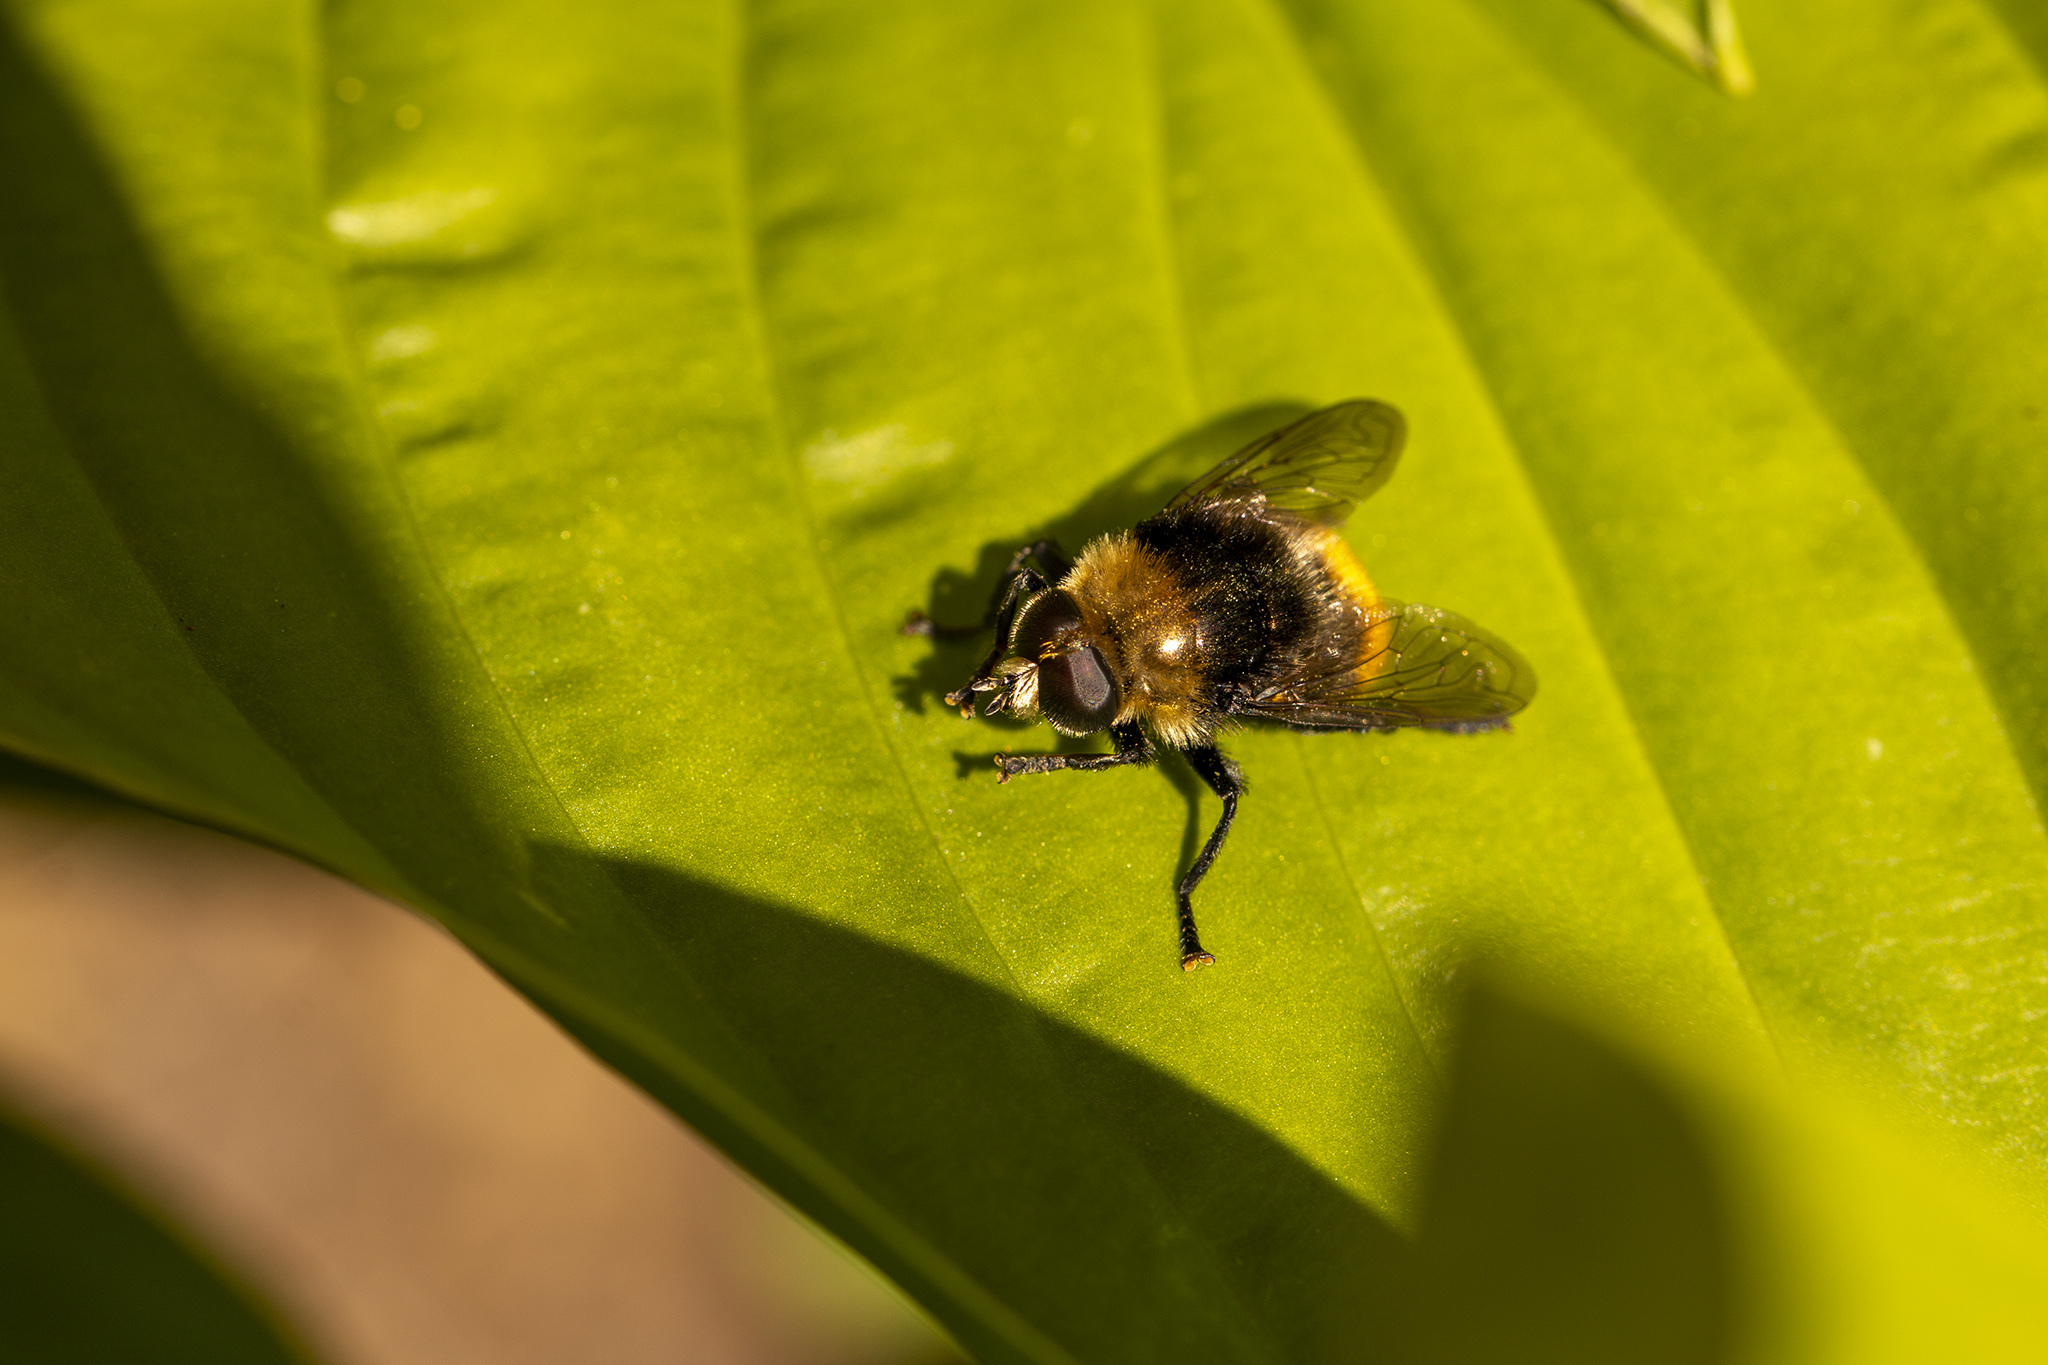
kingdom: Animalia
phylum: Arthropoda
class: Insecta
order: Diptera
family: Syrphidae
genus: Merodon
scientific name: Merodon equestris
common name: Greater bulb-fly
